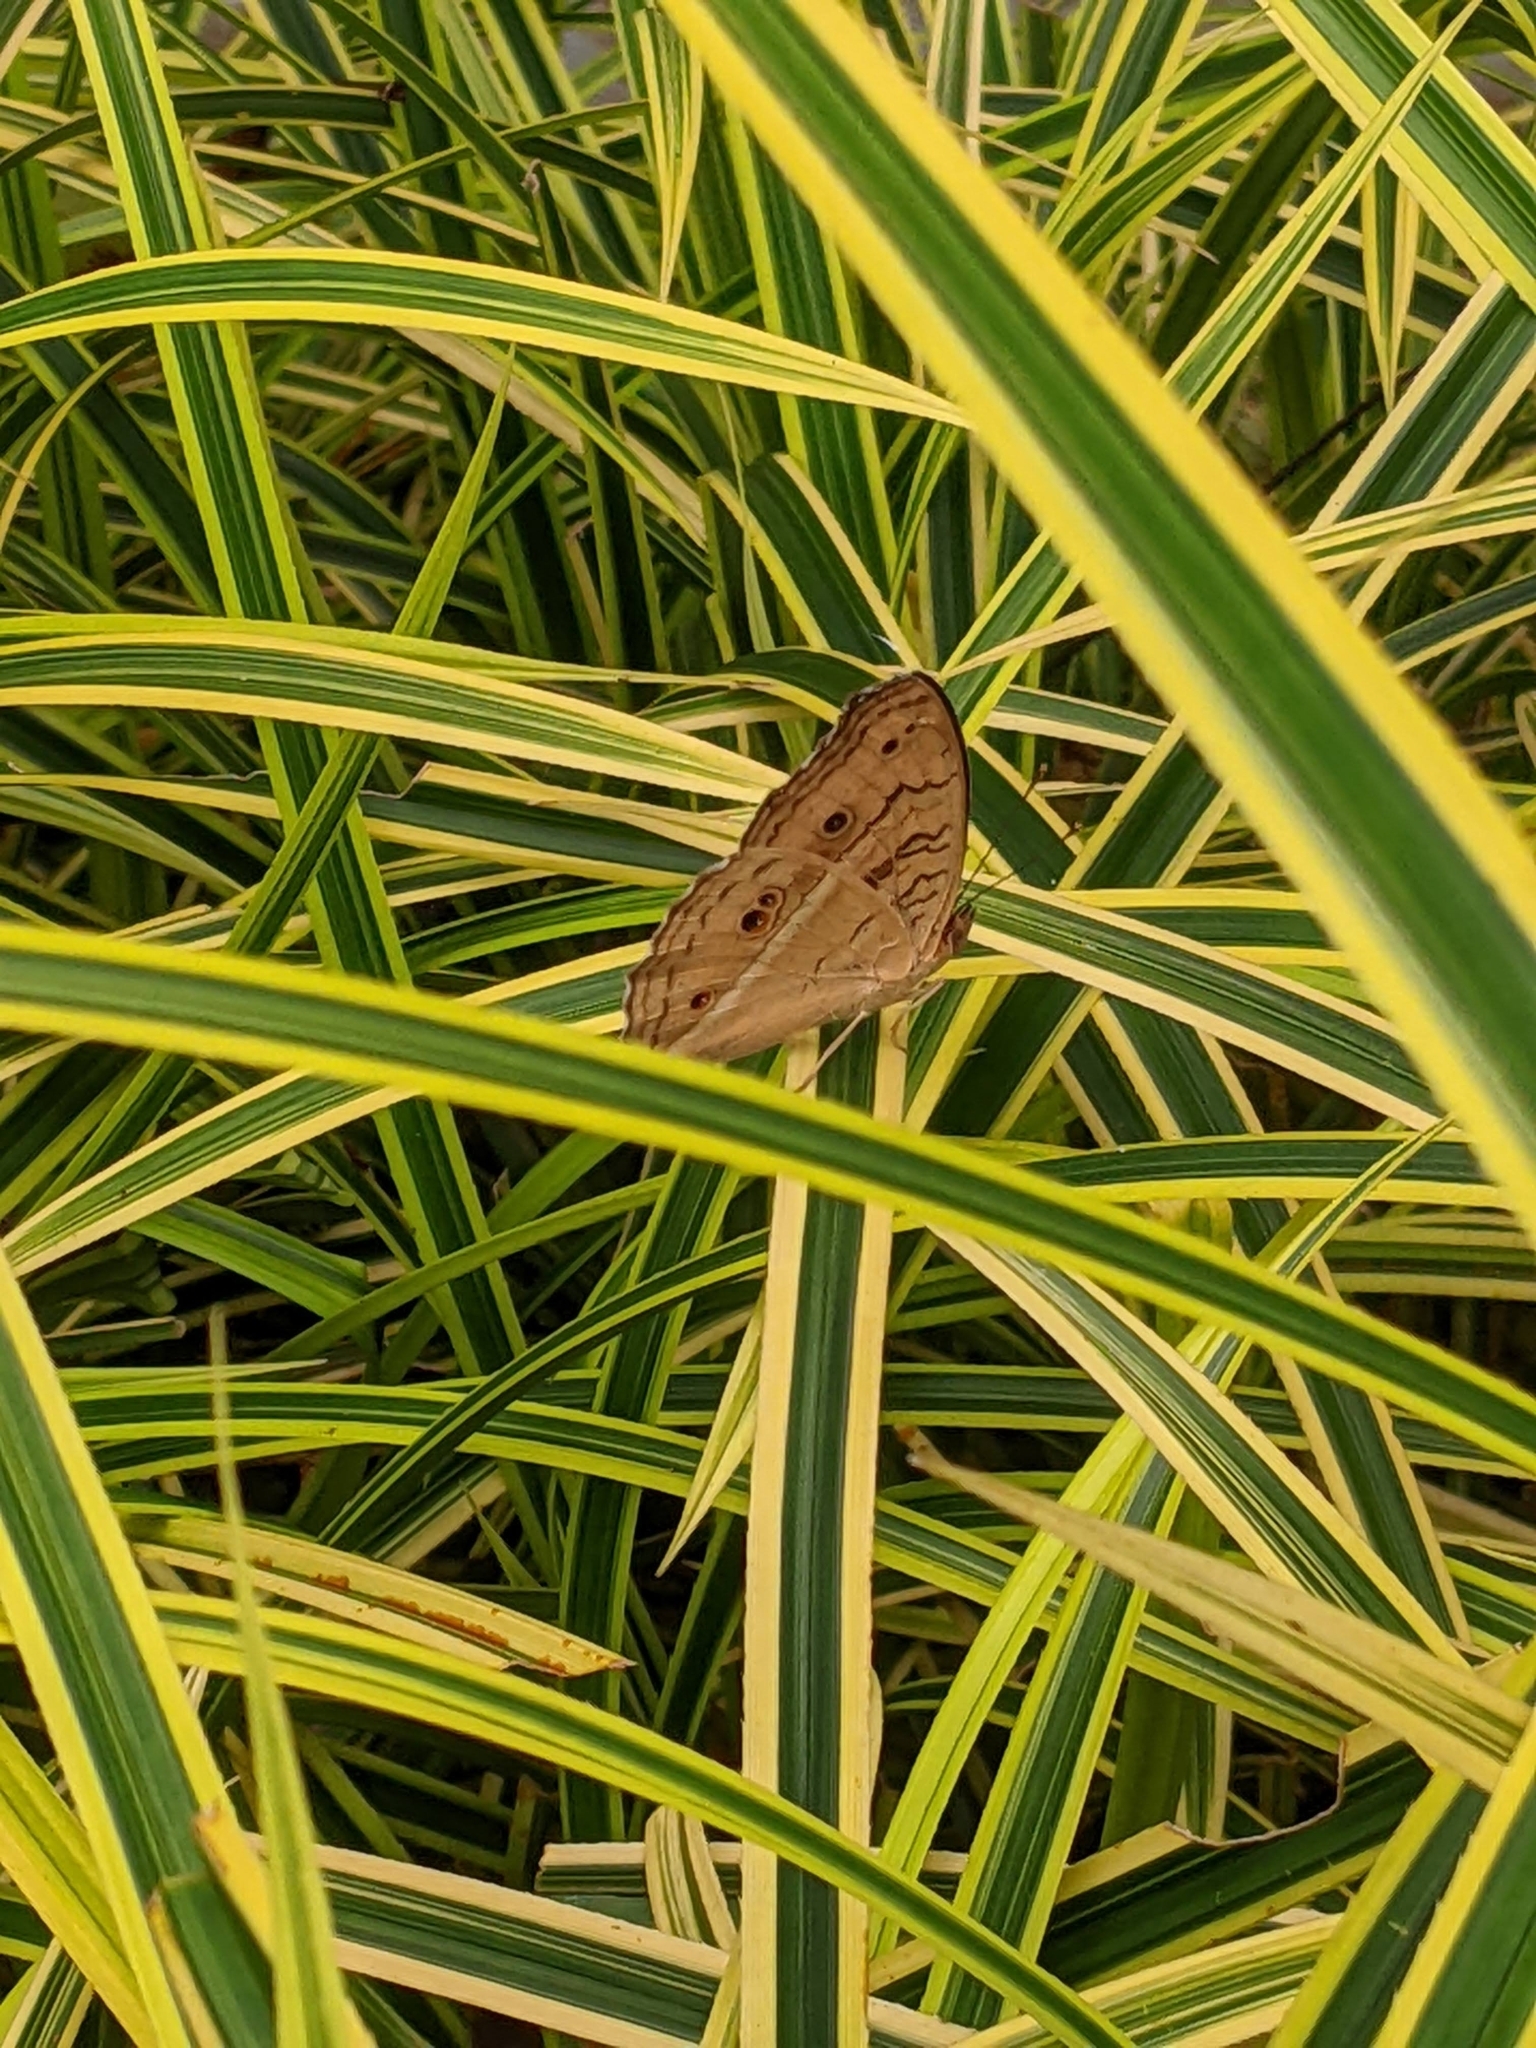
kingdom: Animalia
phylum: Arthropoda
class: Insecta
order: Lepidoptera
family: Nymphalidae
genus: Junonia
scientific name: Junonia almana
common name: Peacock pansy
